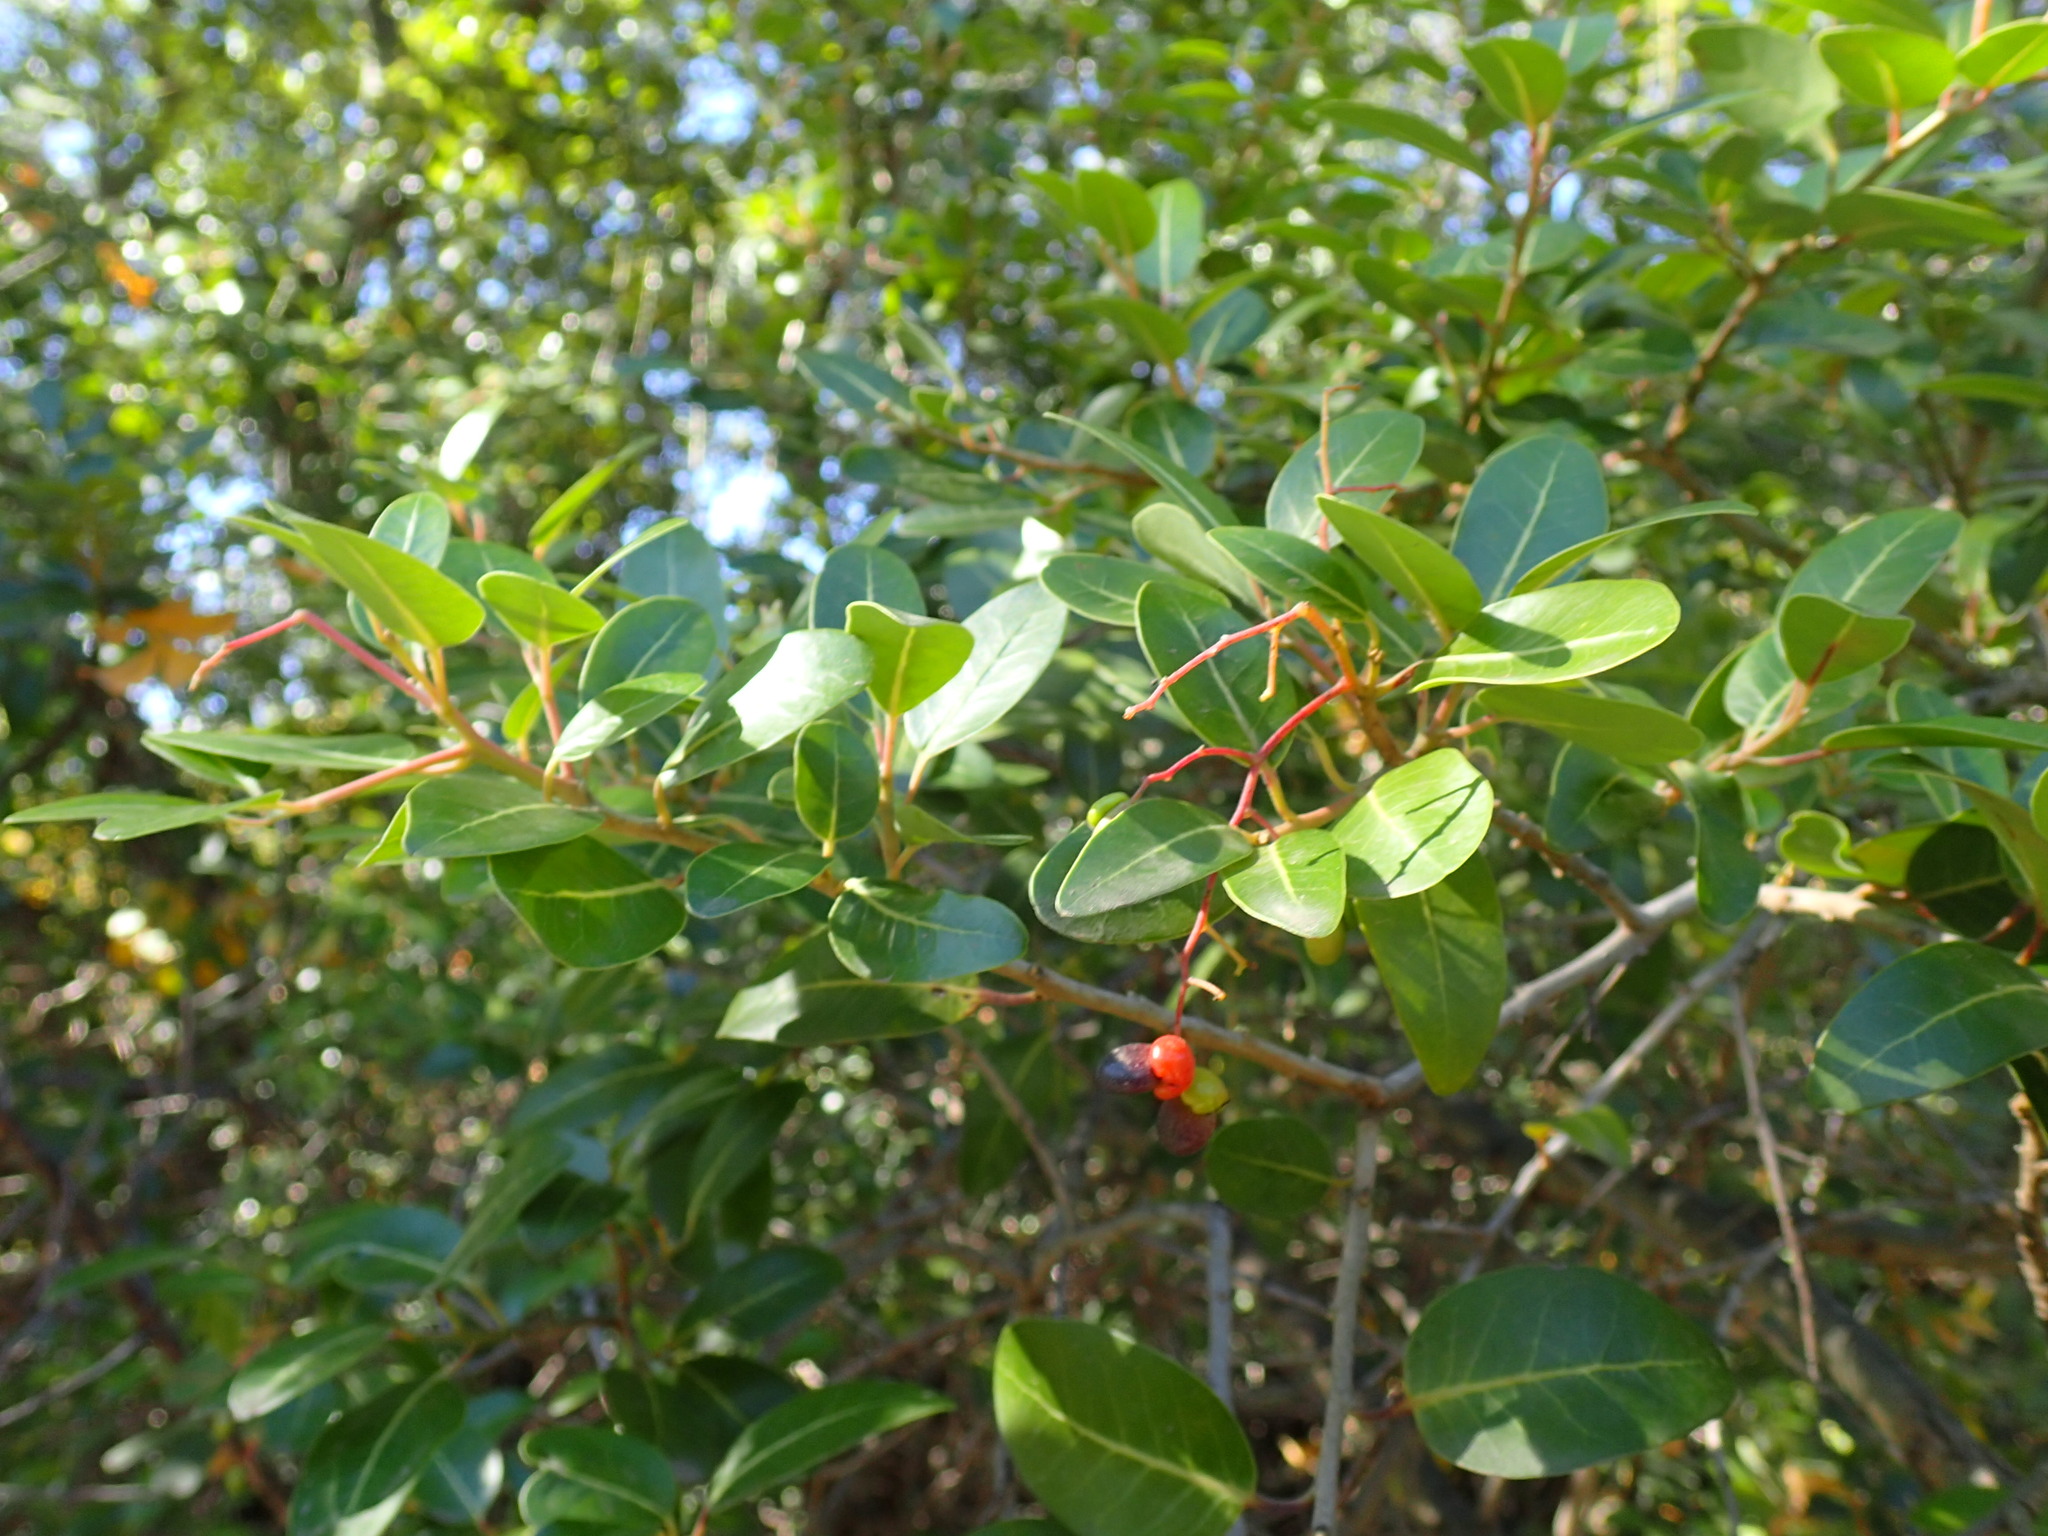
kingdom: Plantae
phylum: Tracheophyta
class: Magnoliopsida
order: Metteniusales
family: Metteniusaceae
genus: Apodytes
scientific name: Apodytes dimidiata
